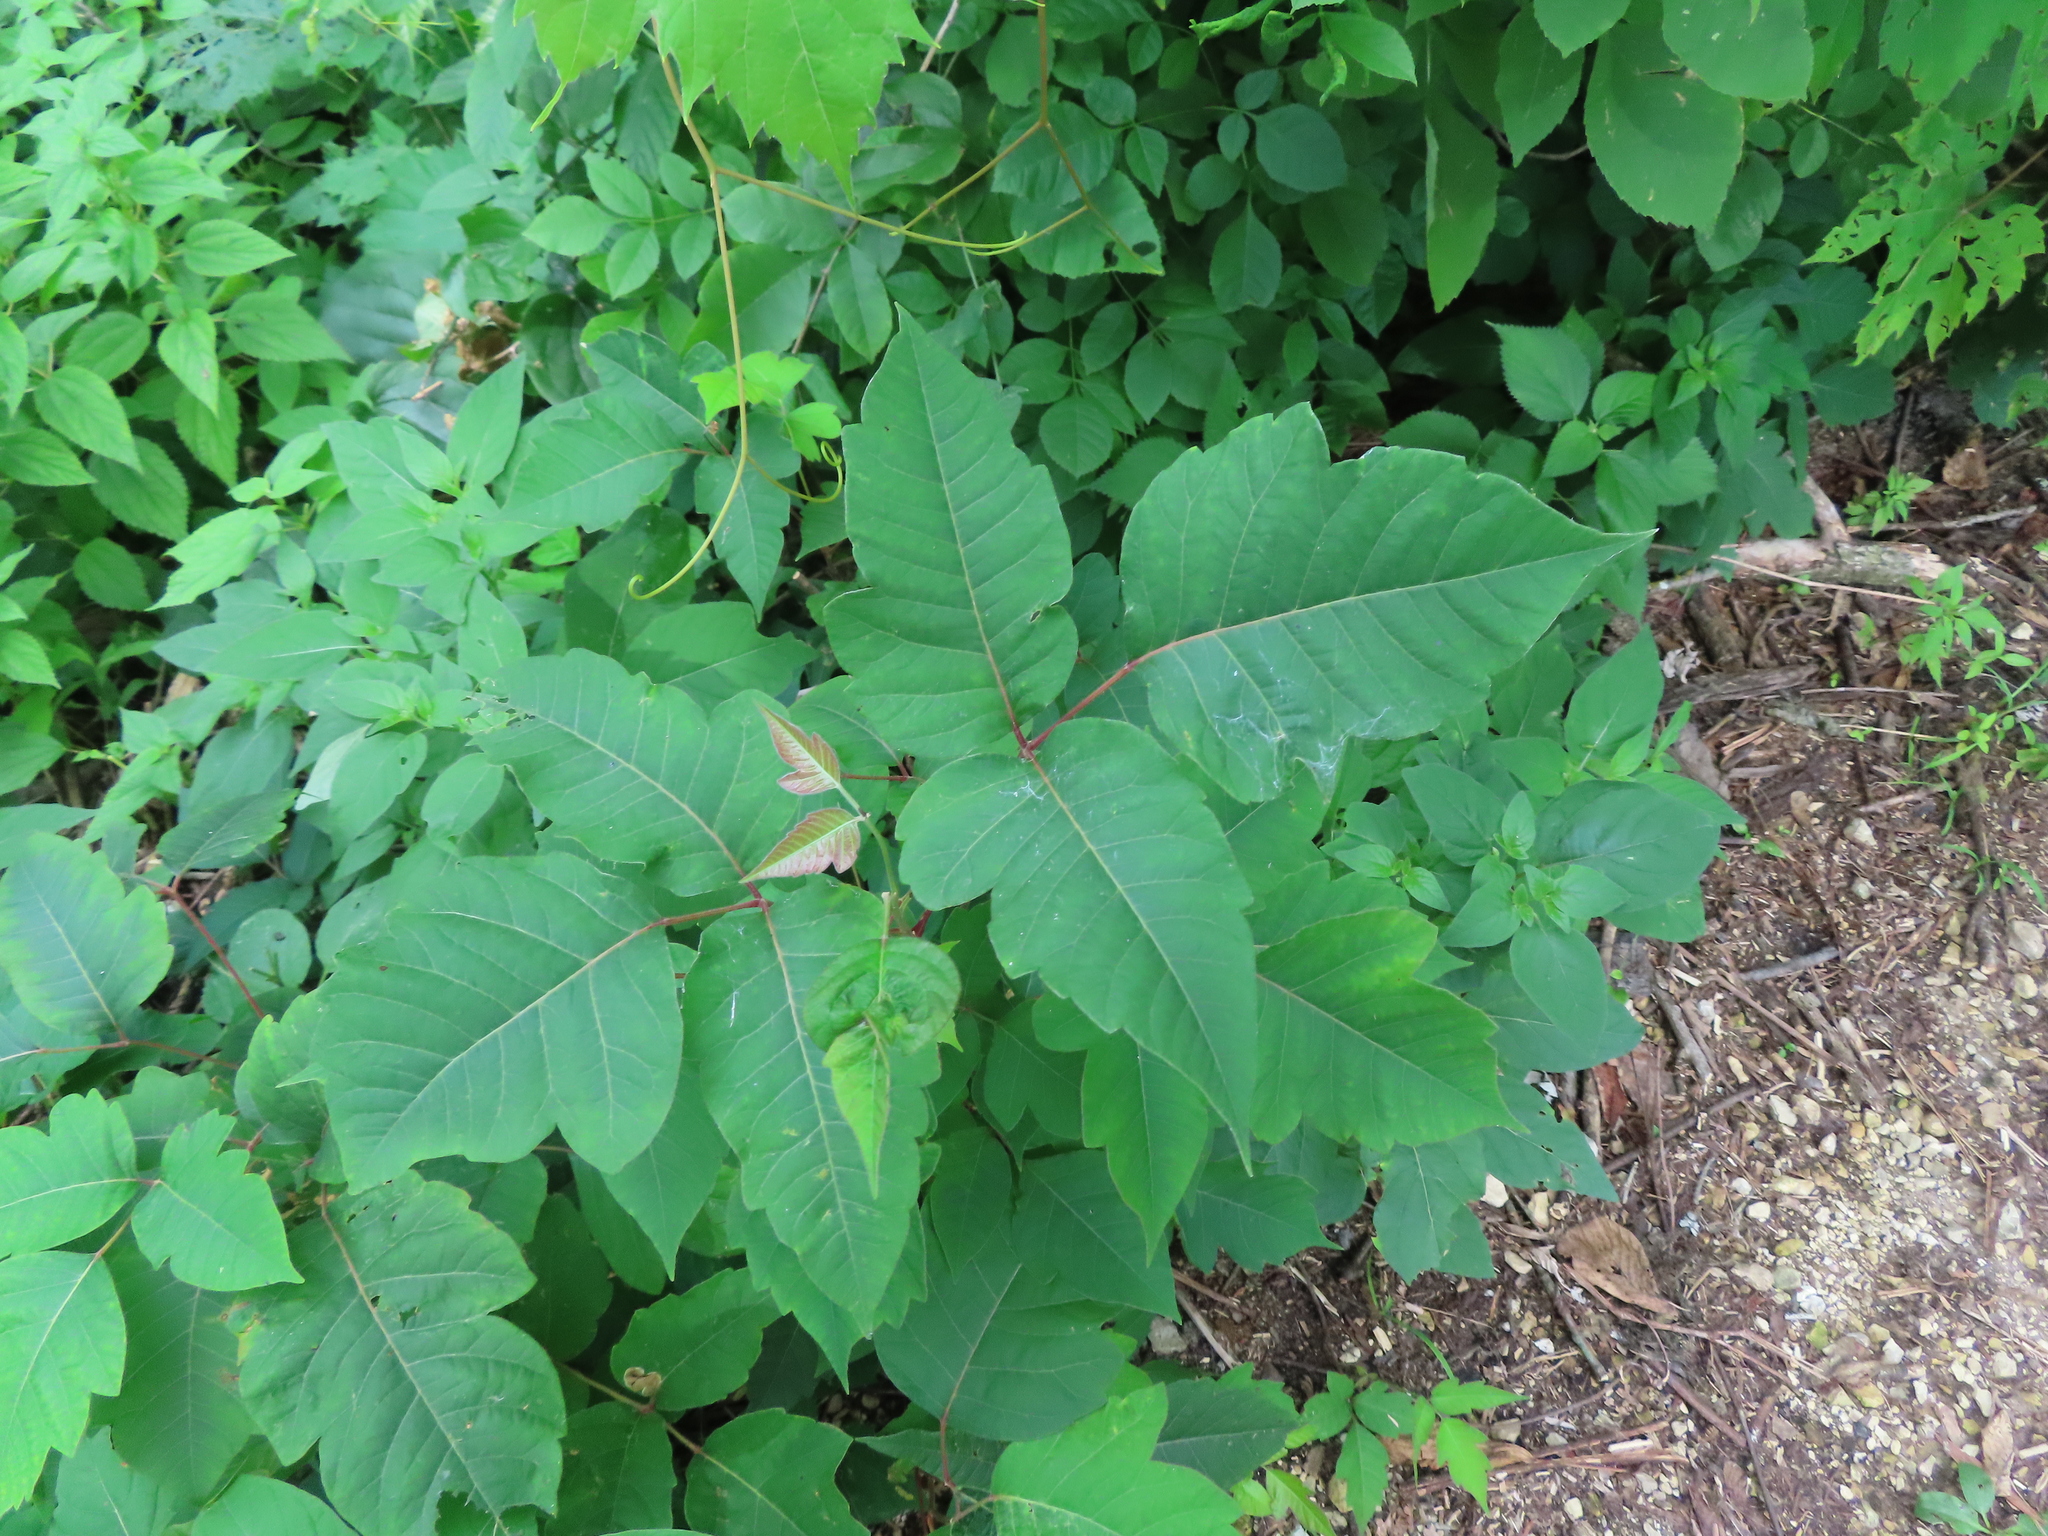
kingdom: Plantae
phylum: Tracheophyta
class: Magnoliopsida
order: Sapindales
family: Anacardiaceae
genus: Toxicodendron
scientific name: Toxicodendron radicans
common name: Poison ivy
